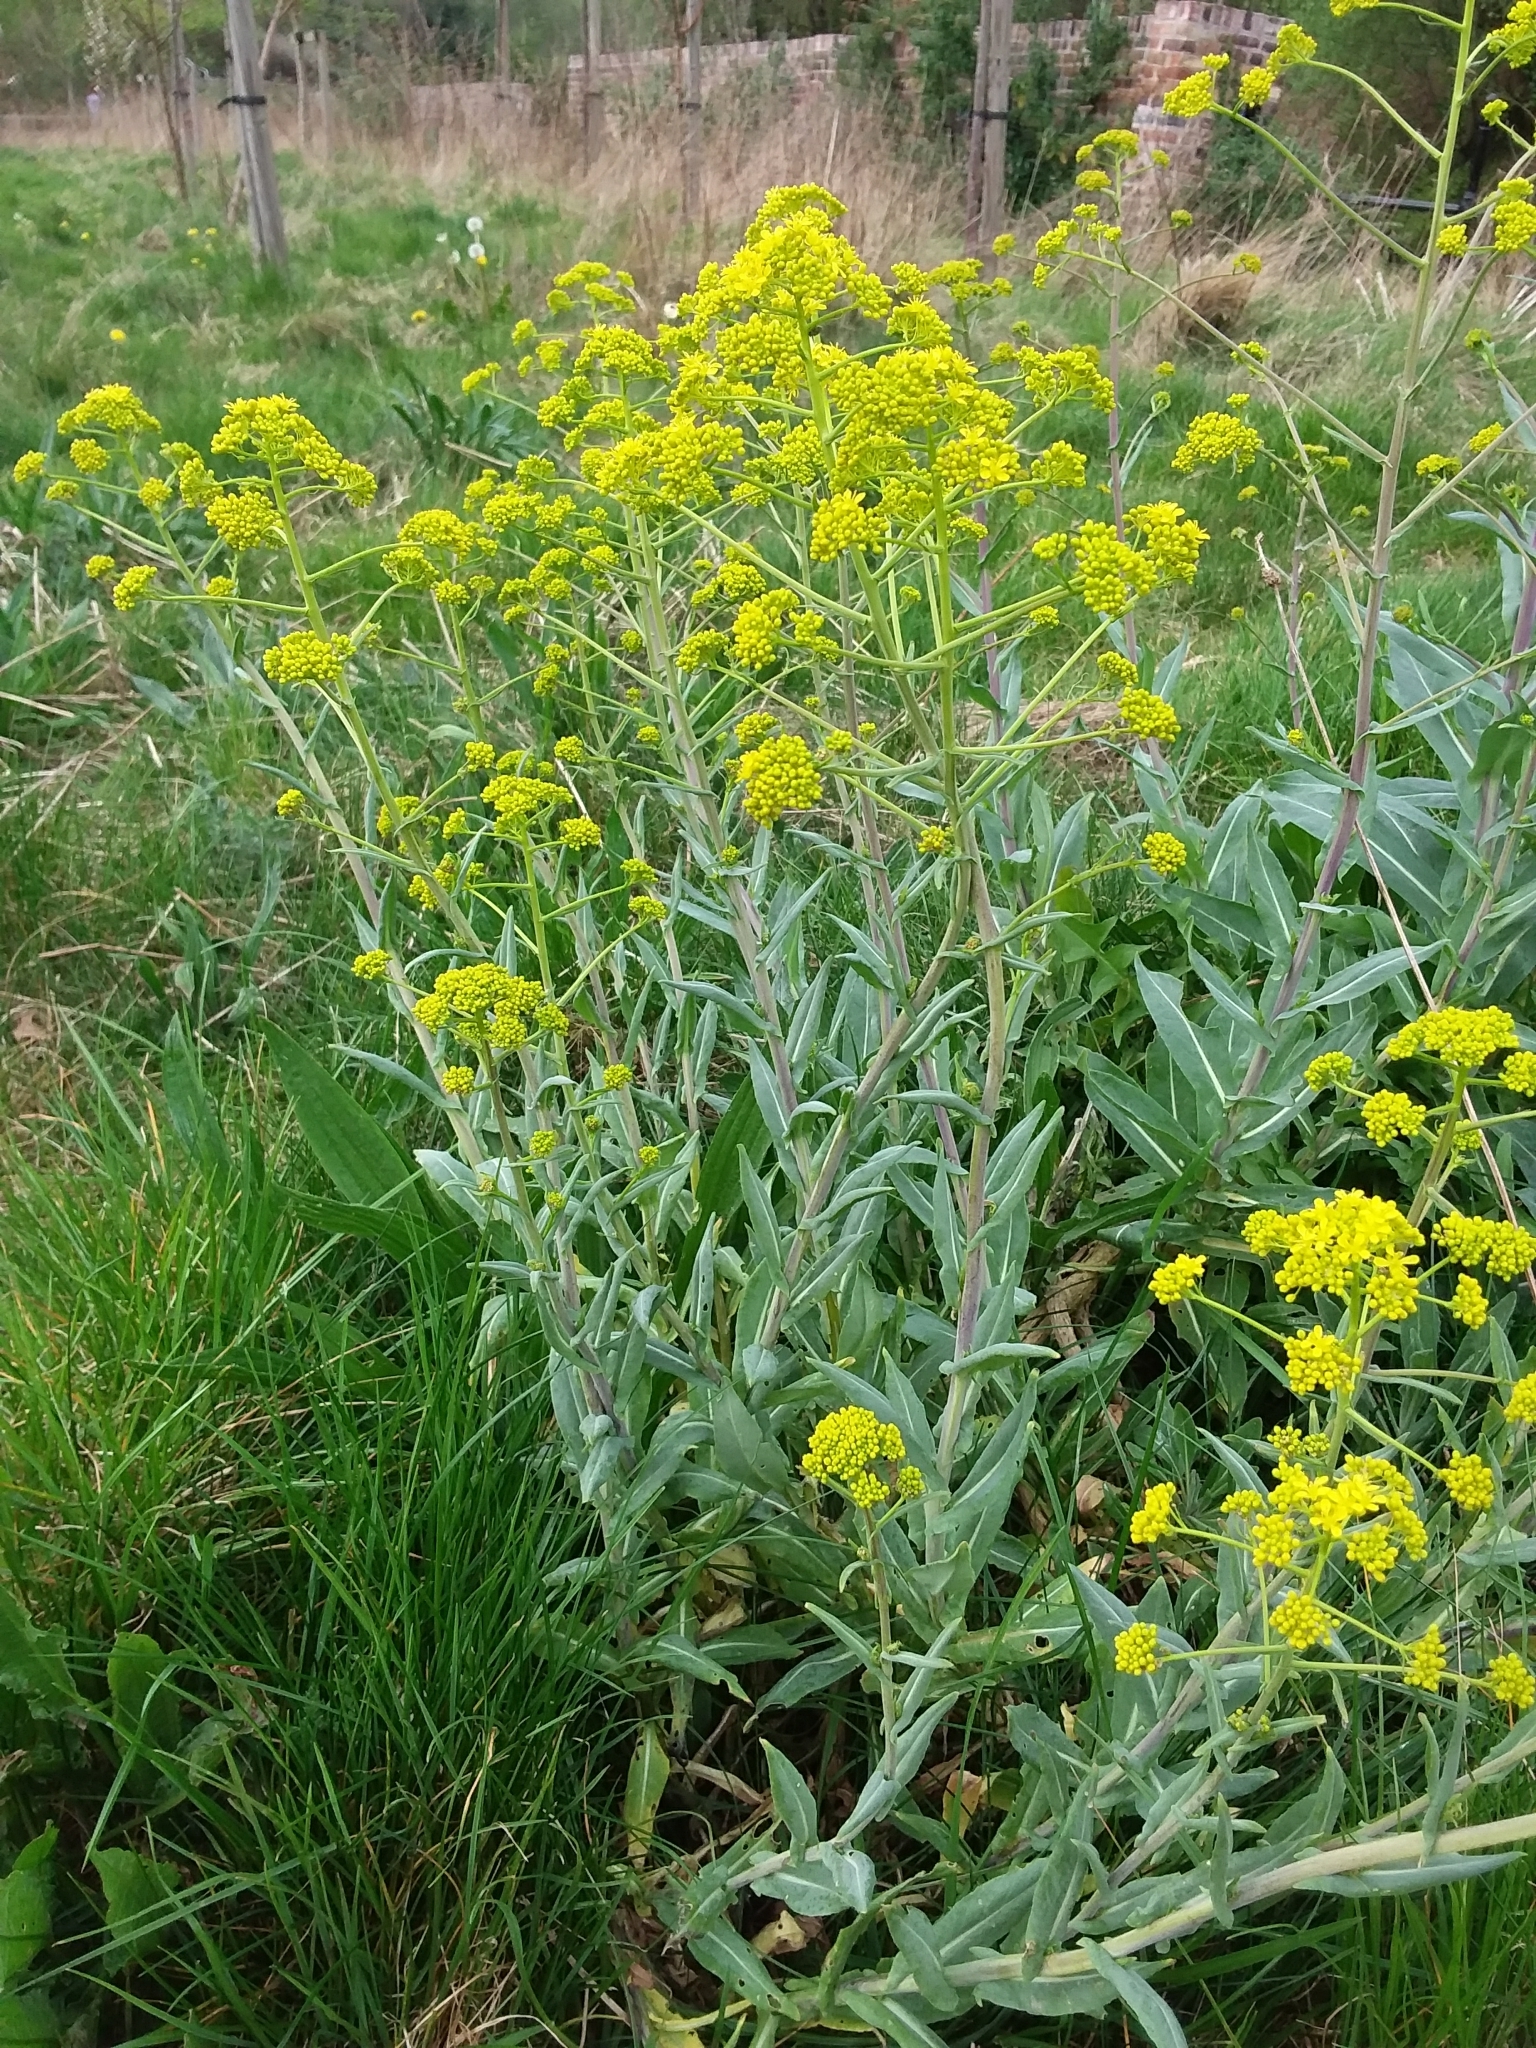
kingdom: Plantae
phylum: Tracheophyta
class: Magnoliopsida
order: Brassicales
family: Brassicaceae
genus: Isatis
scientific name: Isatis tinctoria
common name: Woad
